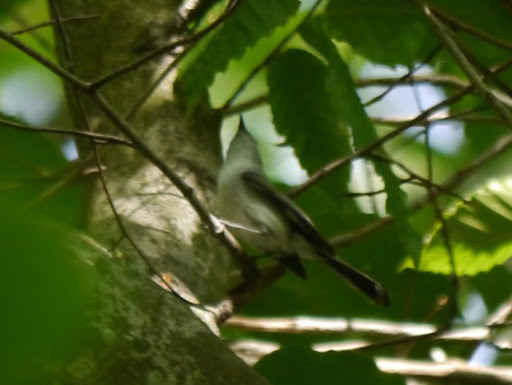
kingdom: Animalia
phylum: Chordata
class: Aves
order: Passeriformes
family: Polioptilidae
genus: Polioptila
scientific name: Polioptila caerulea
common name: Blue-gray gnatcatcher
